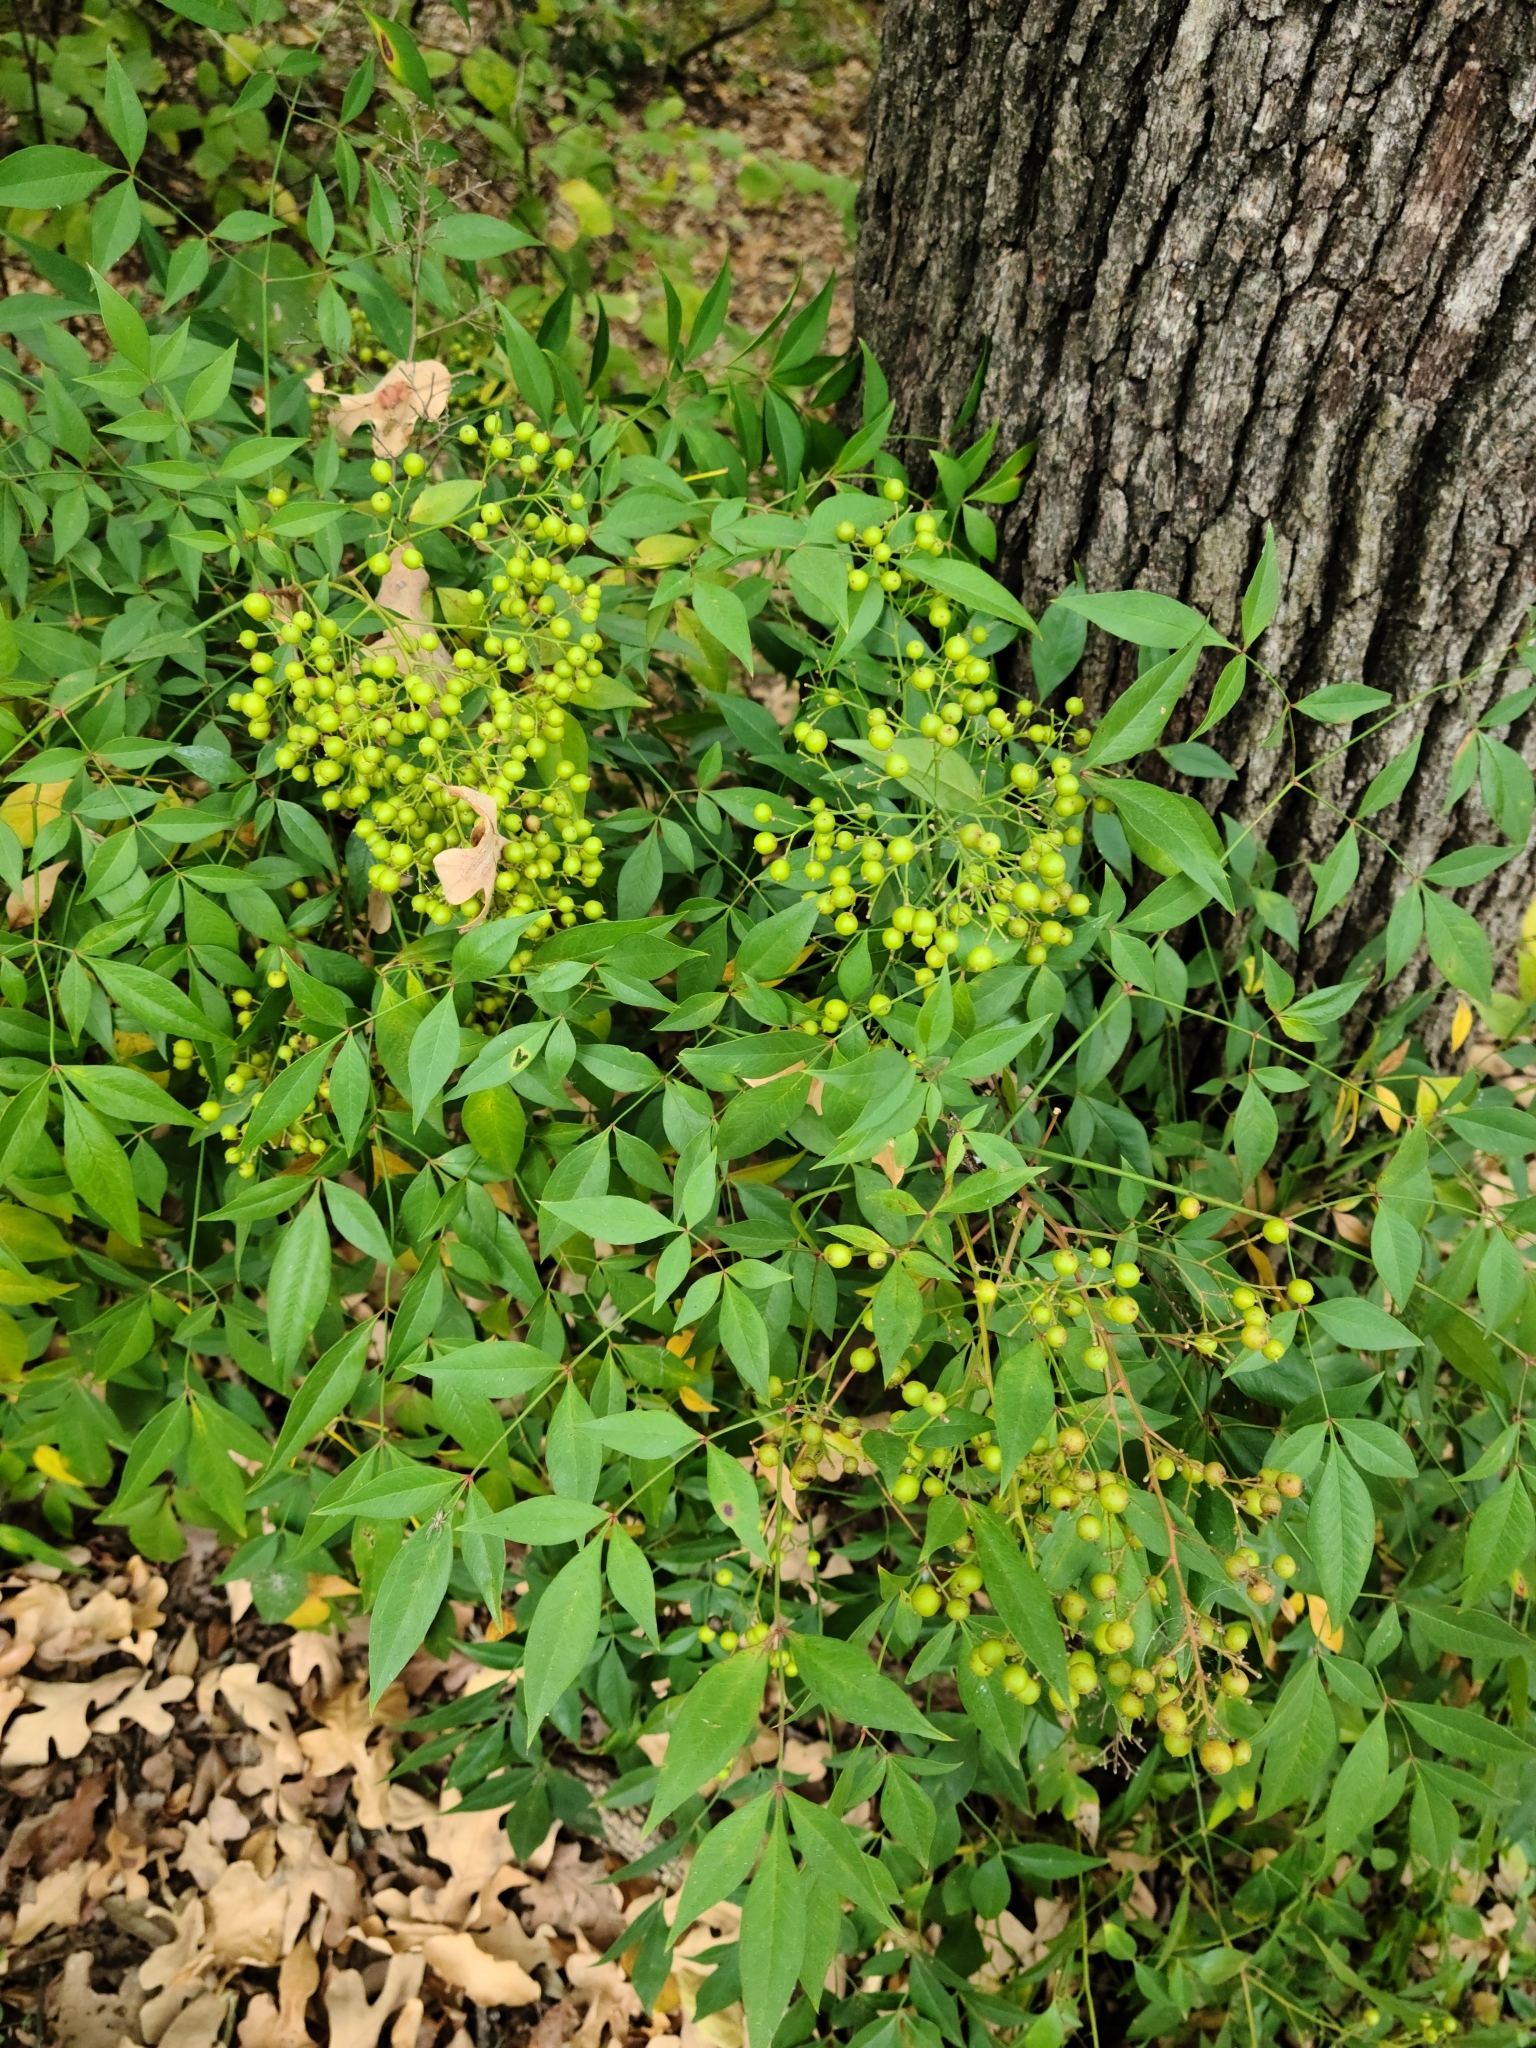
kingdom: Plantae
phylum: Tracheophyta
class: Magnoliopsida
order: Ranunculales
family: Berberidaceae
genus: Nandina
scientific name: Nandina domestica
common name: Sacred bamboo
